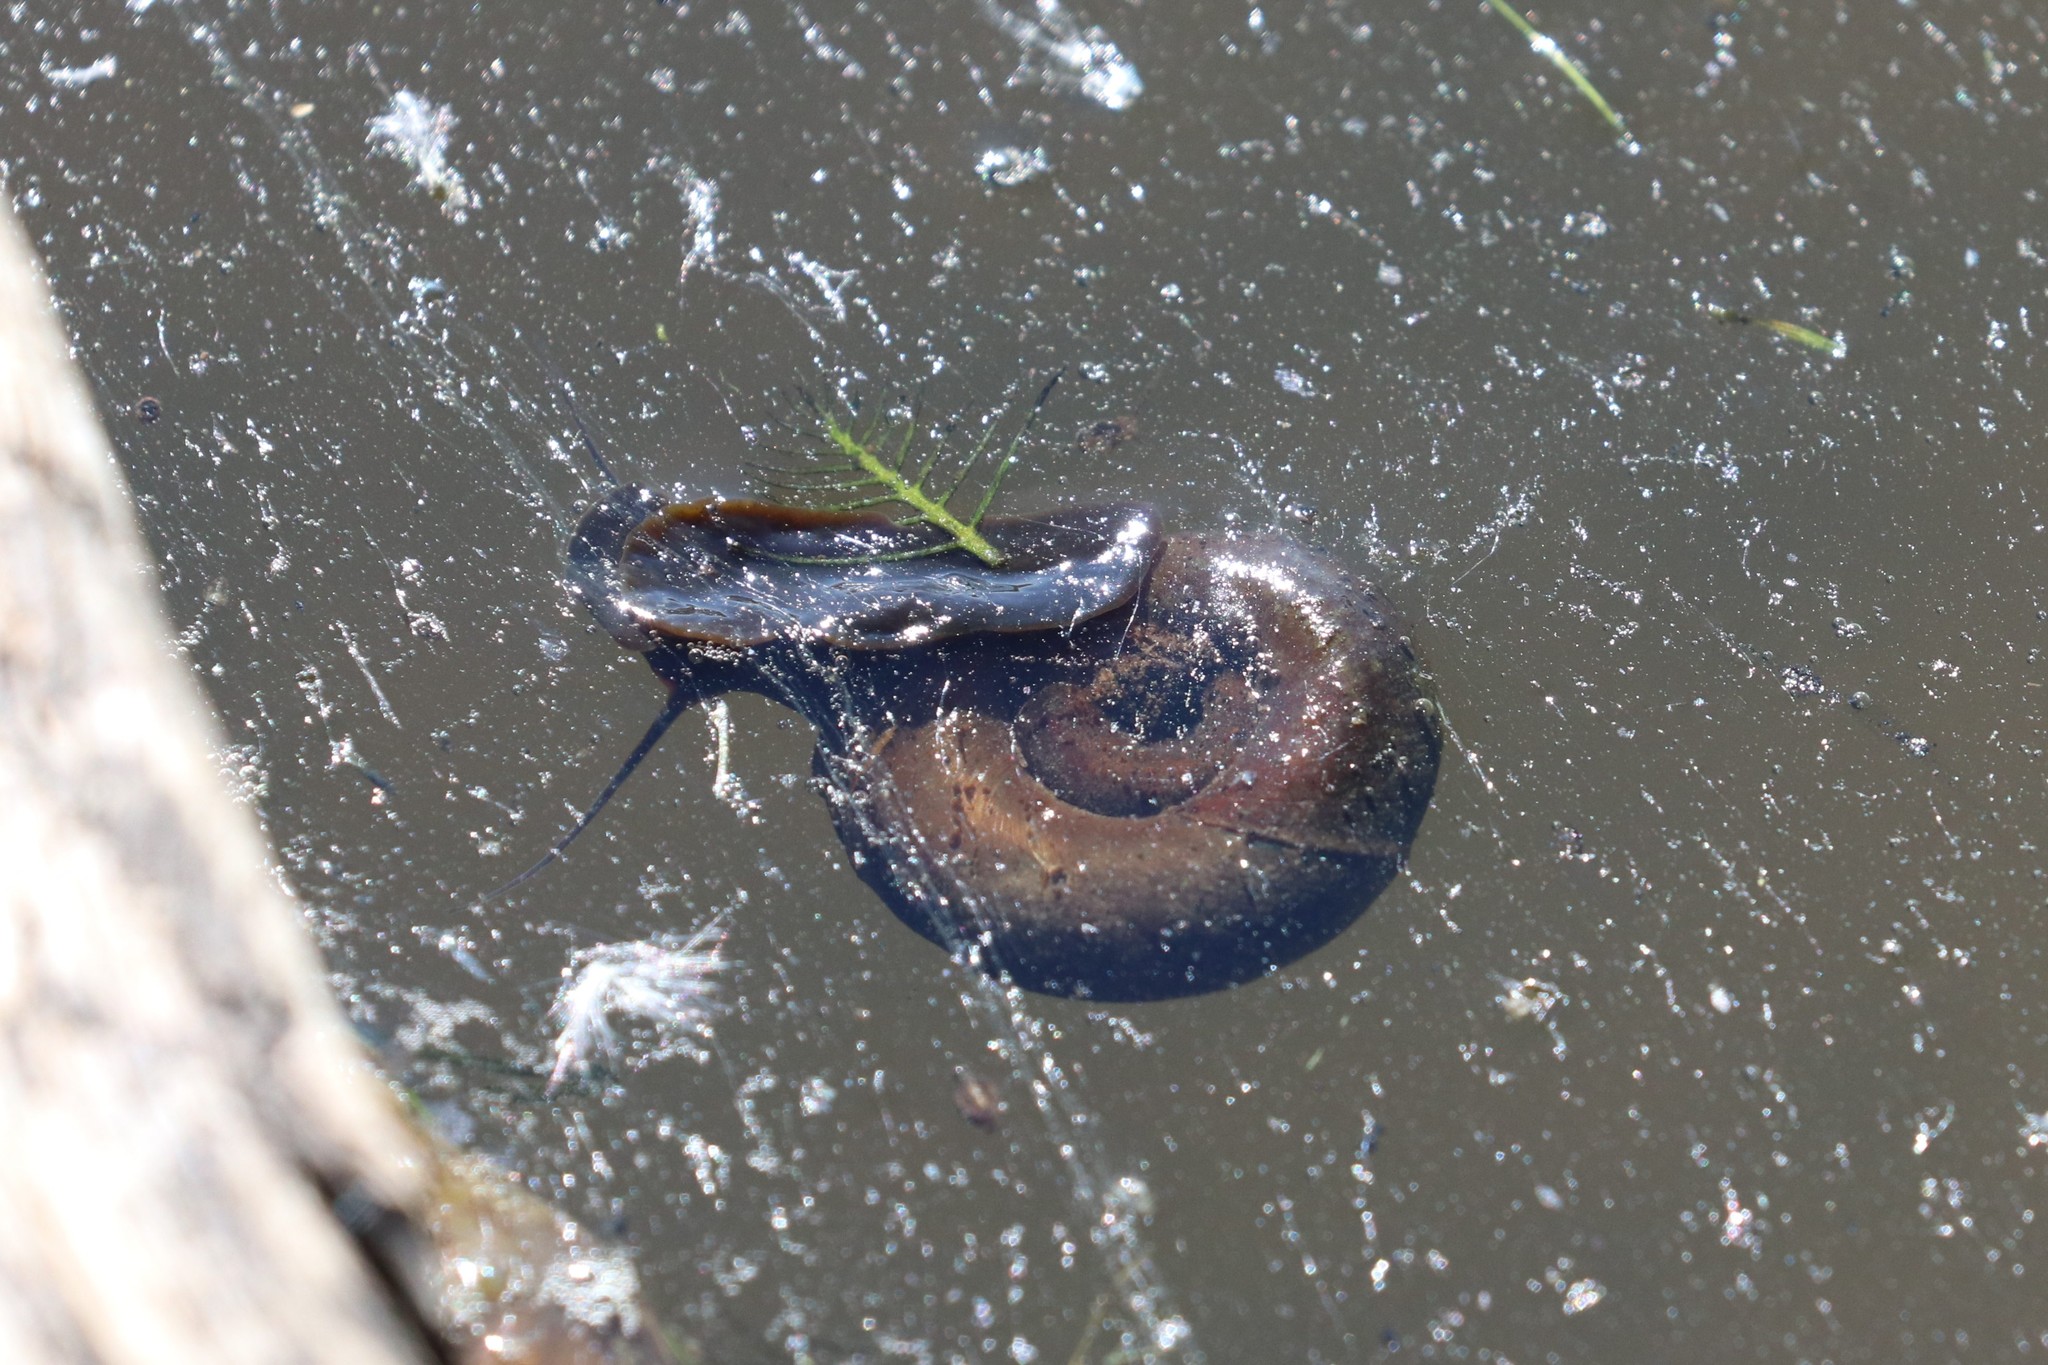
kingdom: Animalia
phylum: Mollusca
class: Gastropoda
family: Planorbidae
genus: Planorbarius
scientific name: Planorbarius corneus
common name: Great ramshorn
